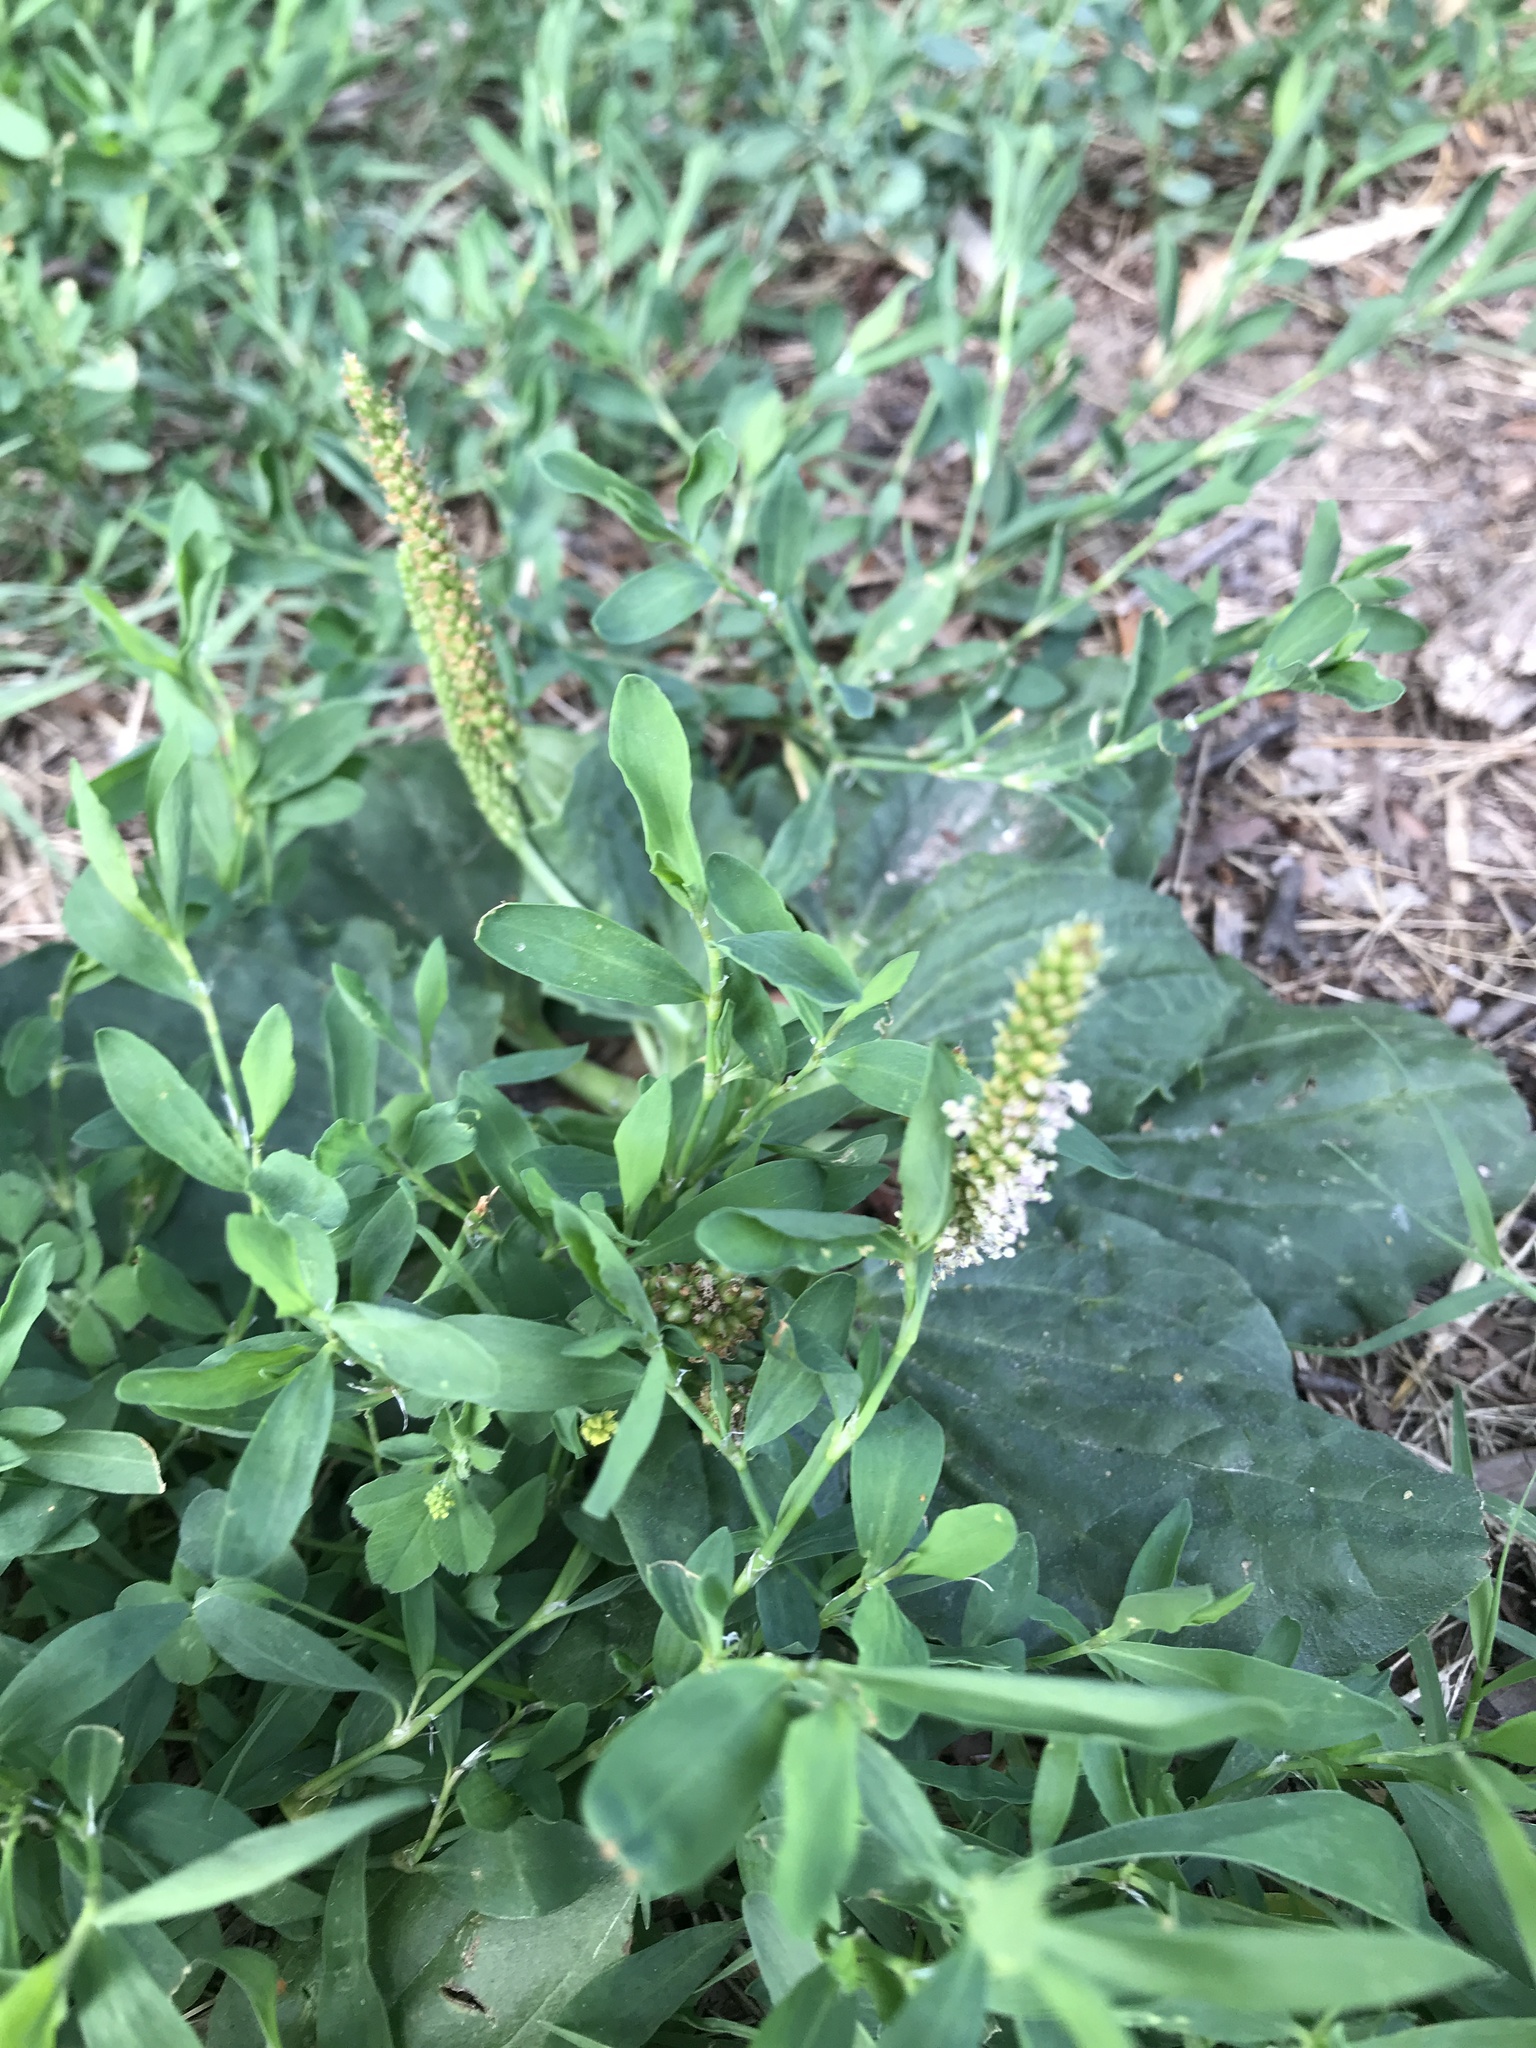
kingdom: Plantae
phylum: Tracheophyta
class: Magnoliopsida
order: Lamiales
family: Plantaginaceae
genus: Plantago
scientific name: Plantago major
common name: Common plantain
